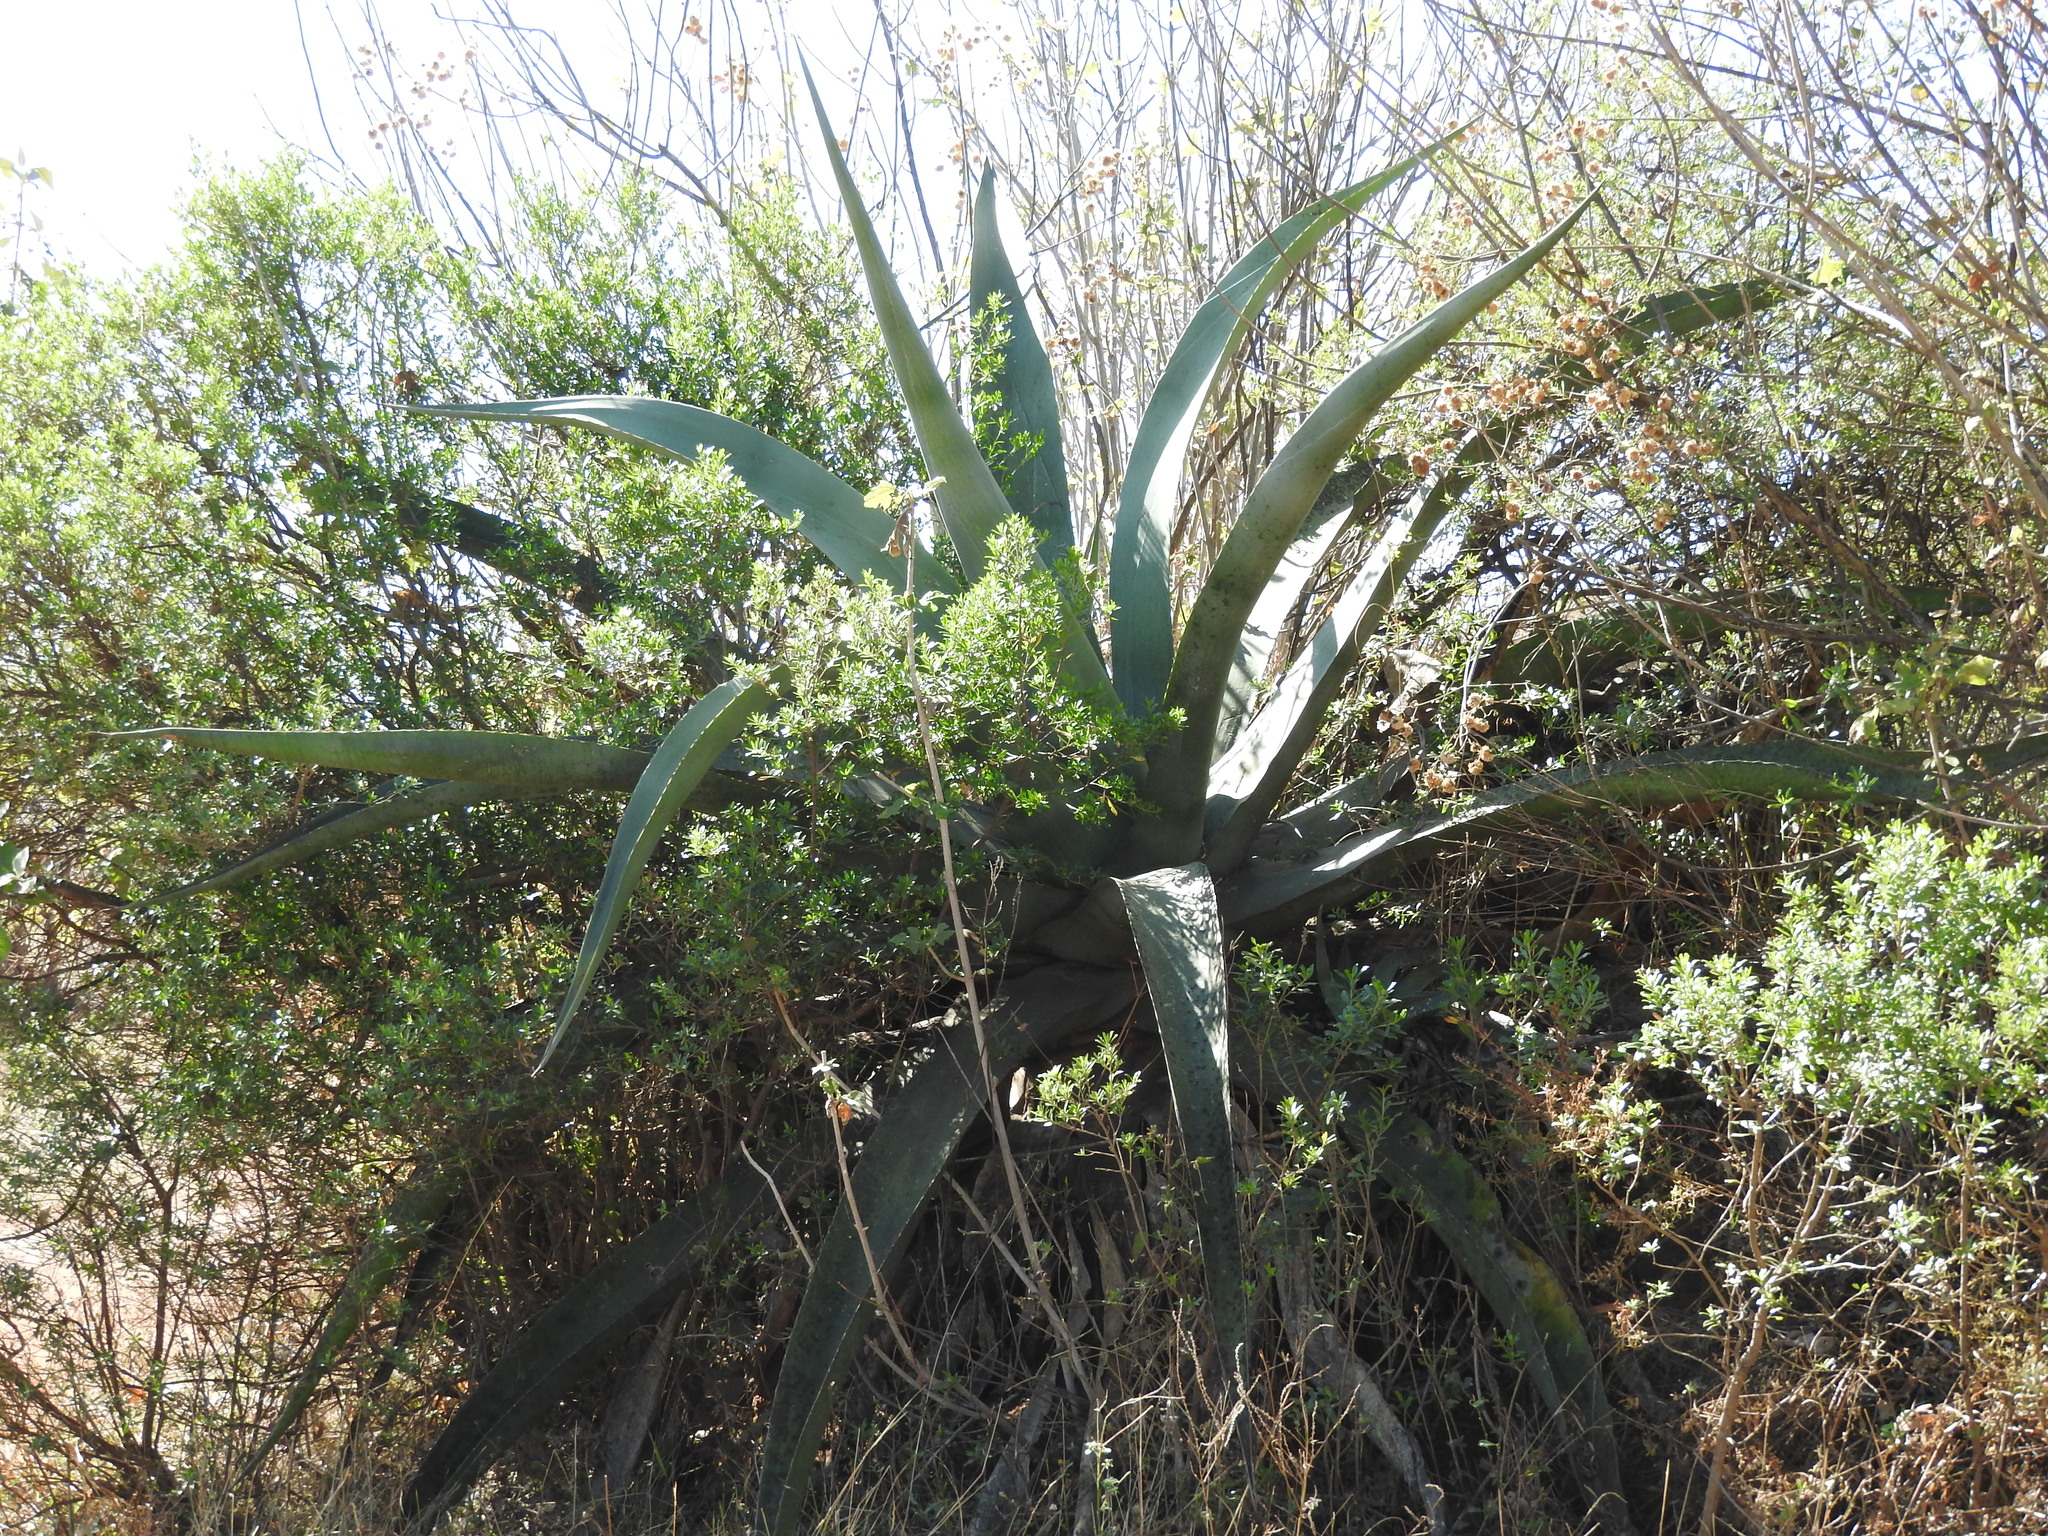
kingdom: Plantae
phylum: Tracheophyta
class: Liliopsida
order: Asparagales
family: Asparagaceae
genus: Agave
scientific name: Agave salmiana
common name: Pulque agave
